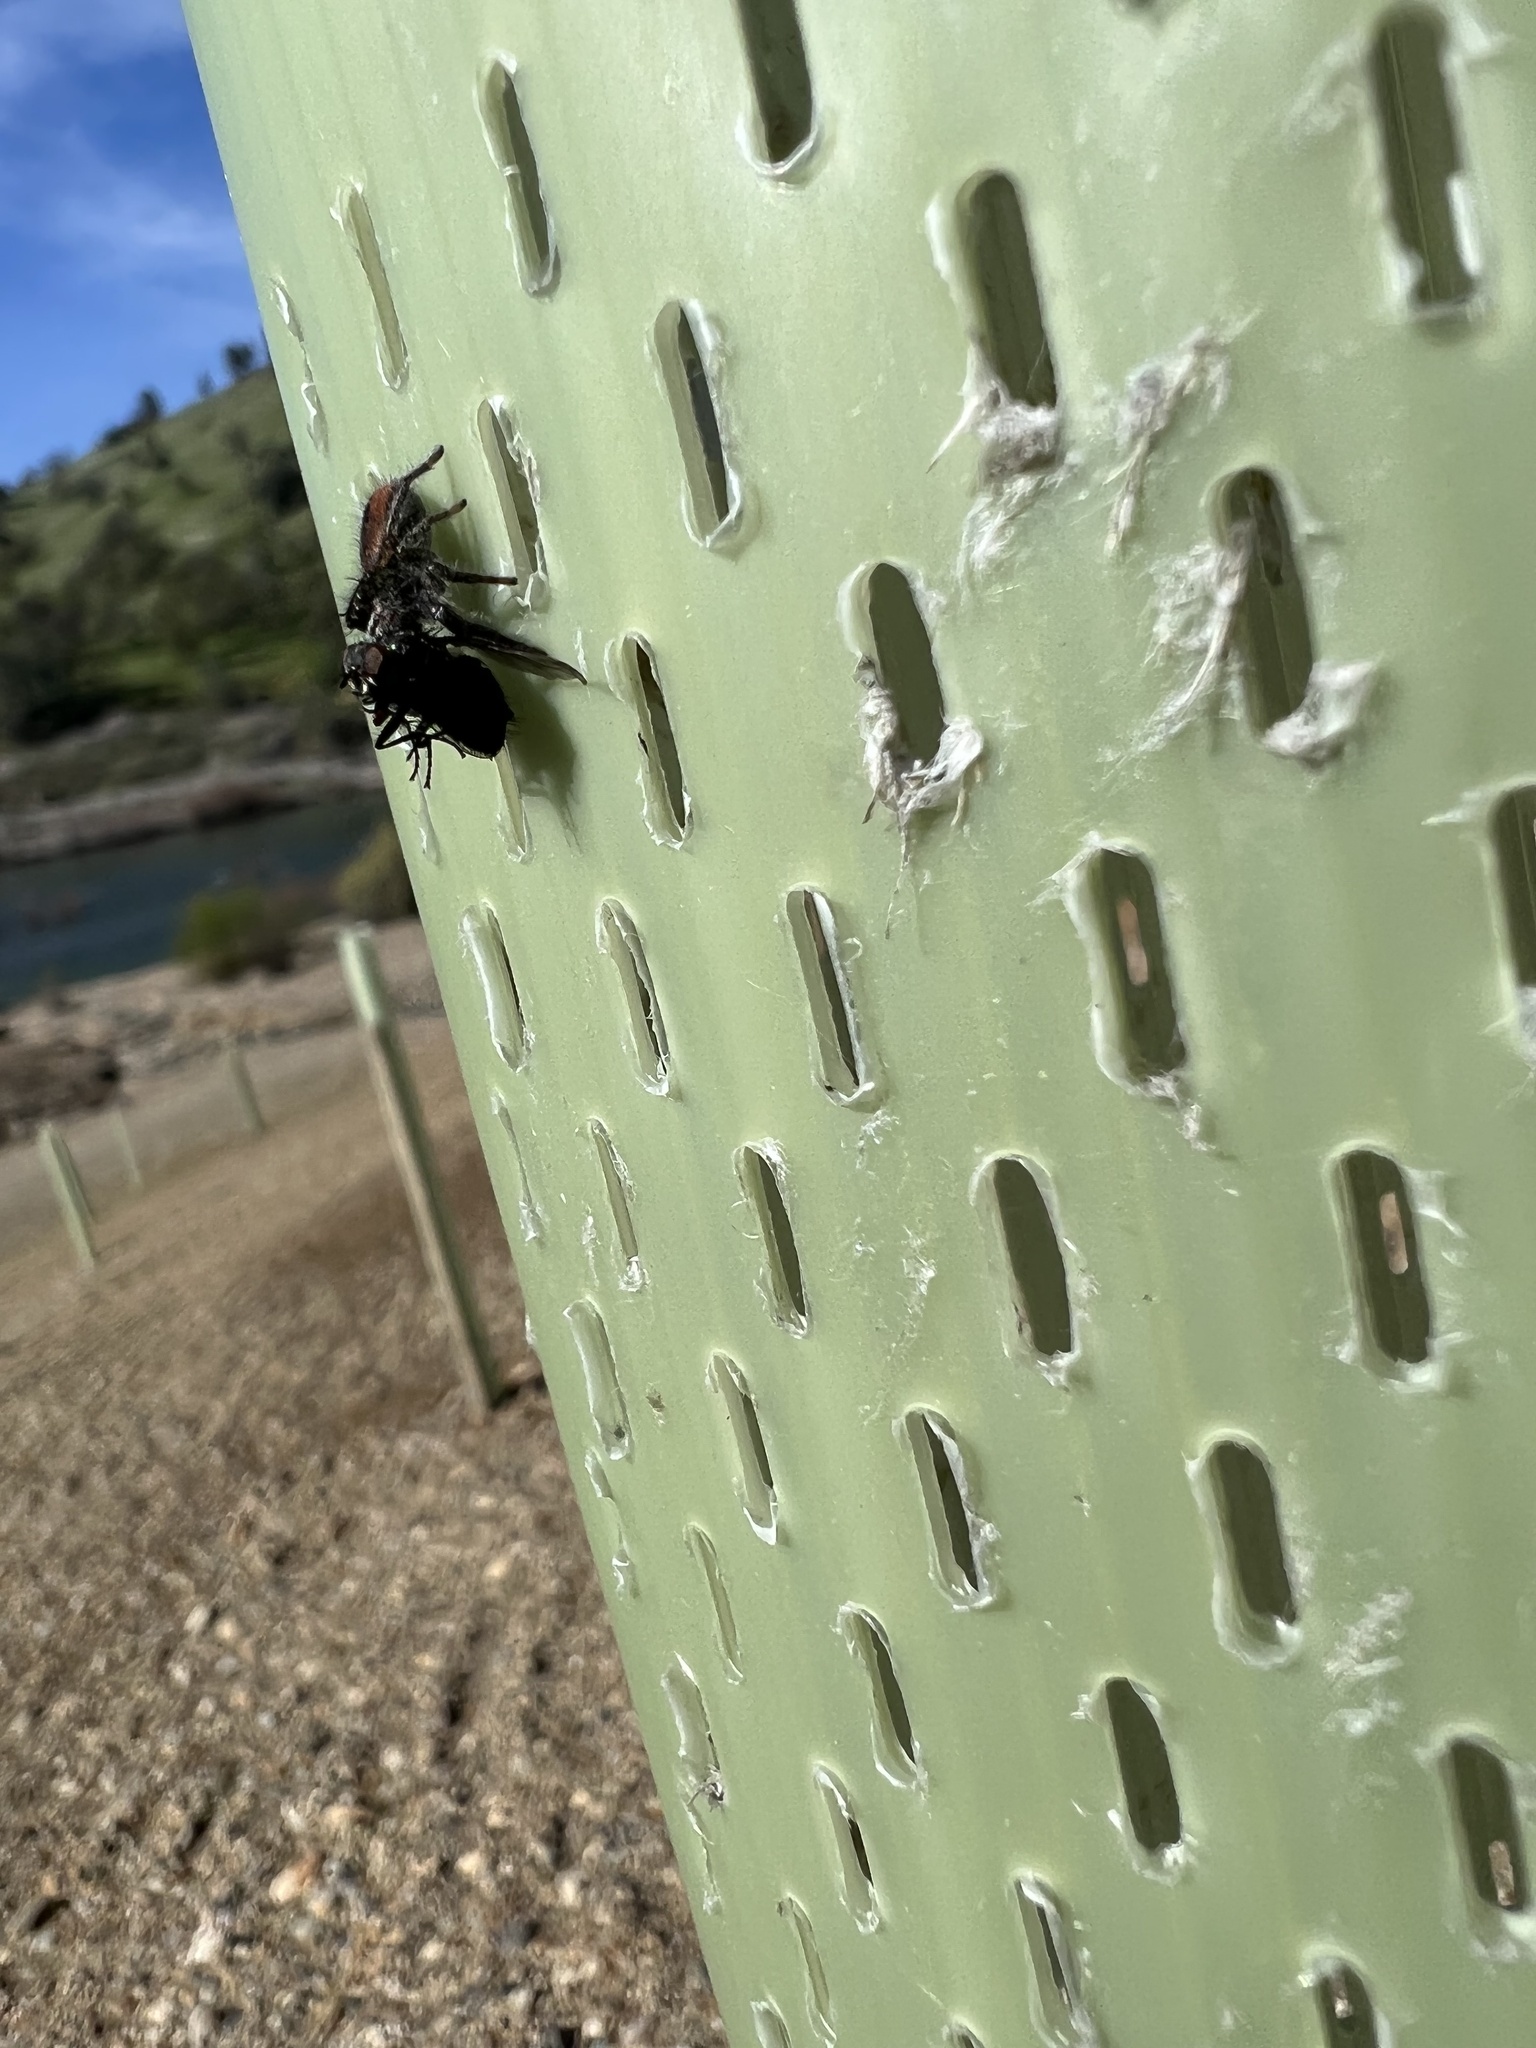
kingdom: Animalia
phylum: Arthropoda
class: Arachnida
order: Araneae
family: Salticidae
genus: Phidippus
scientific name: Phidippus johnsoni
